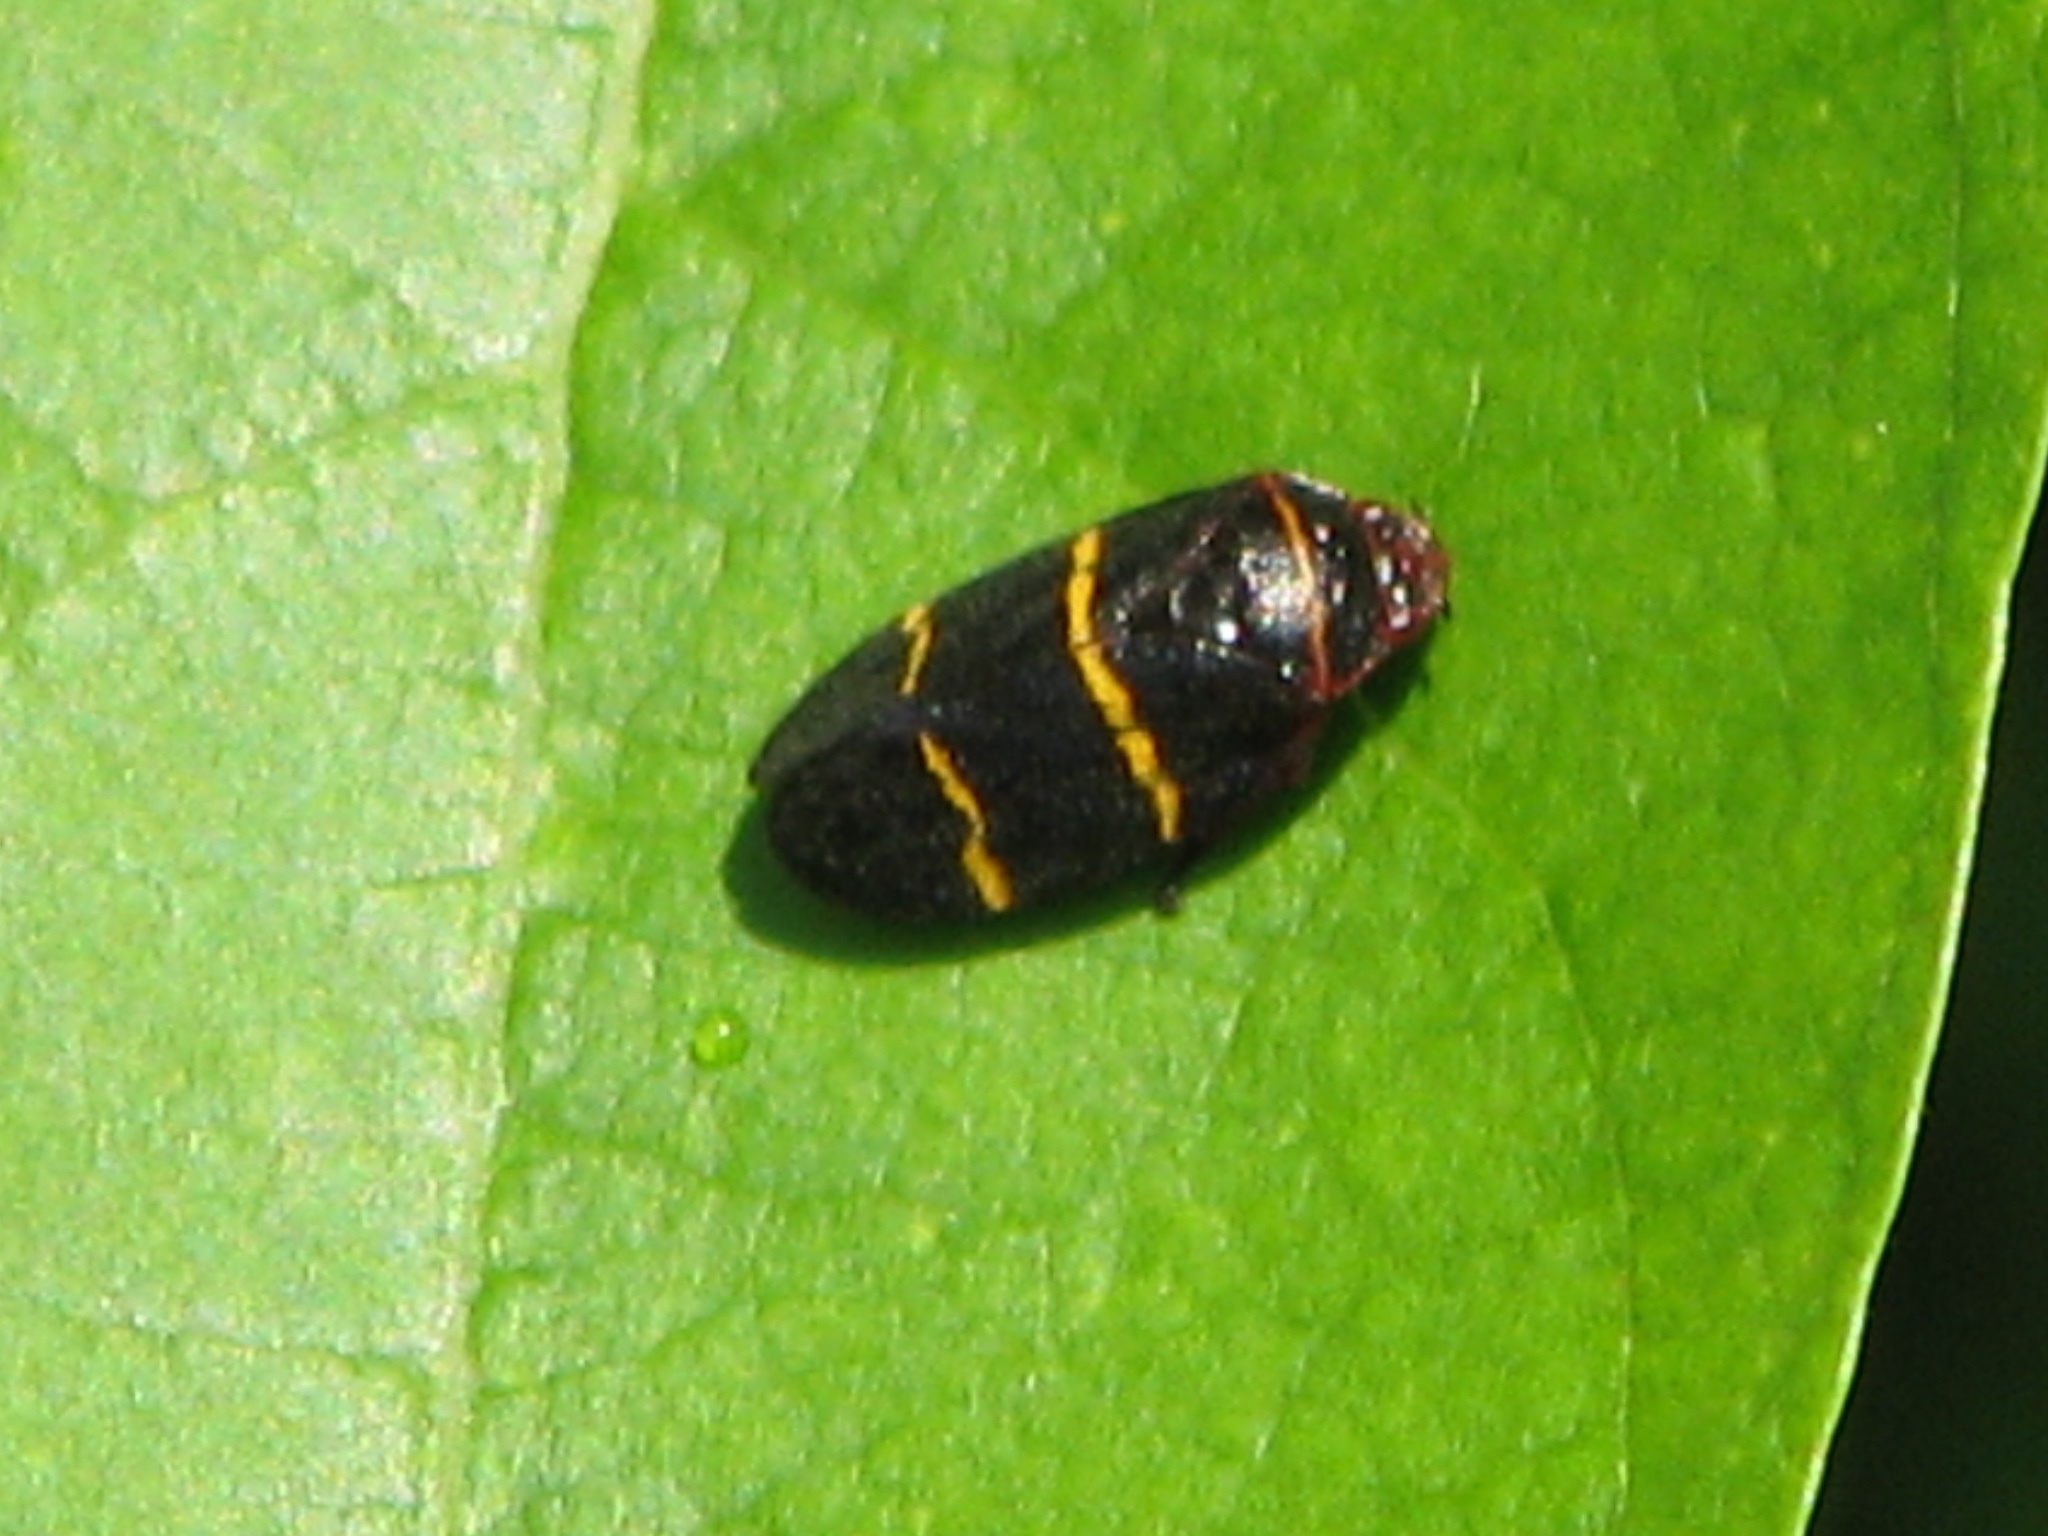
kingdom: Animalia
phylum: Arthropoda
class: Insecta
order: Hemiptera
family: Cercopidae
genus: Prosapia
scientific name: Prosapia bicincta
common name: Twolined spittlebug
